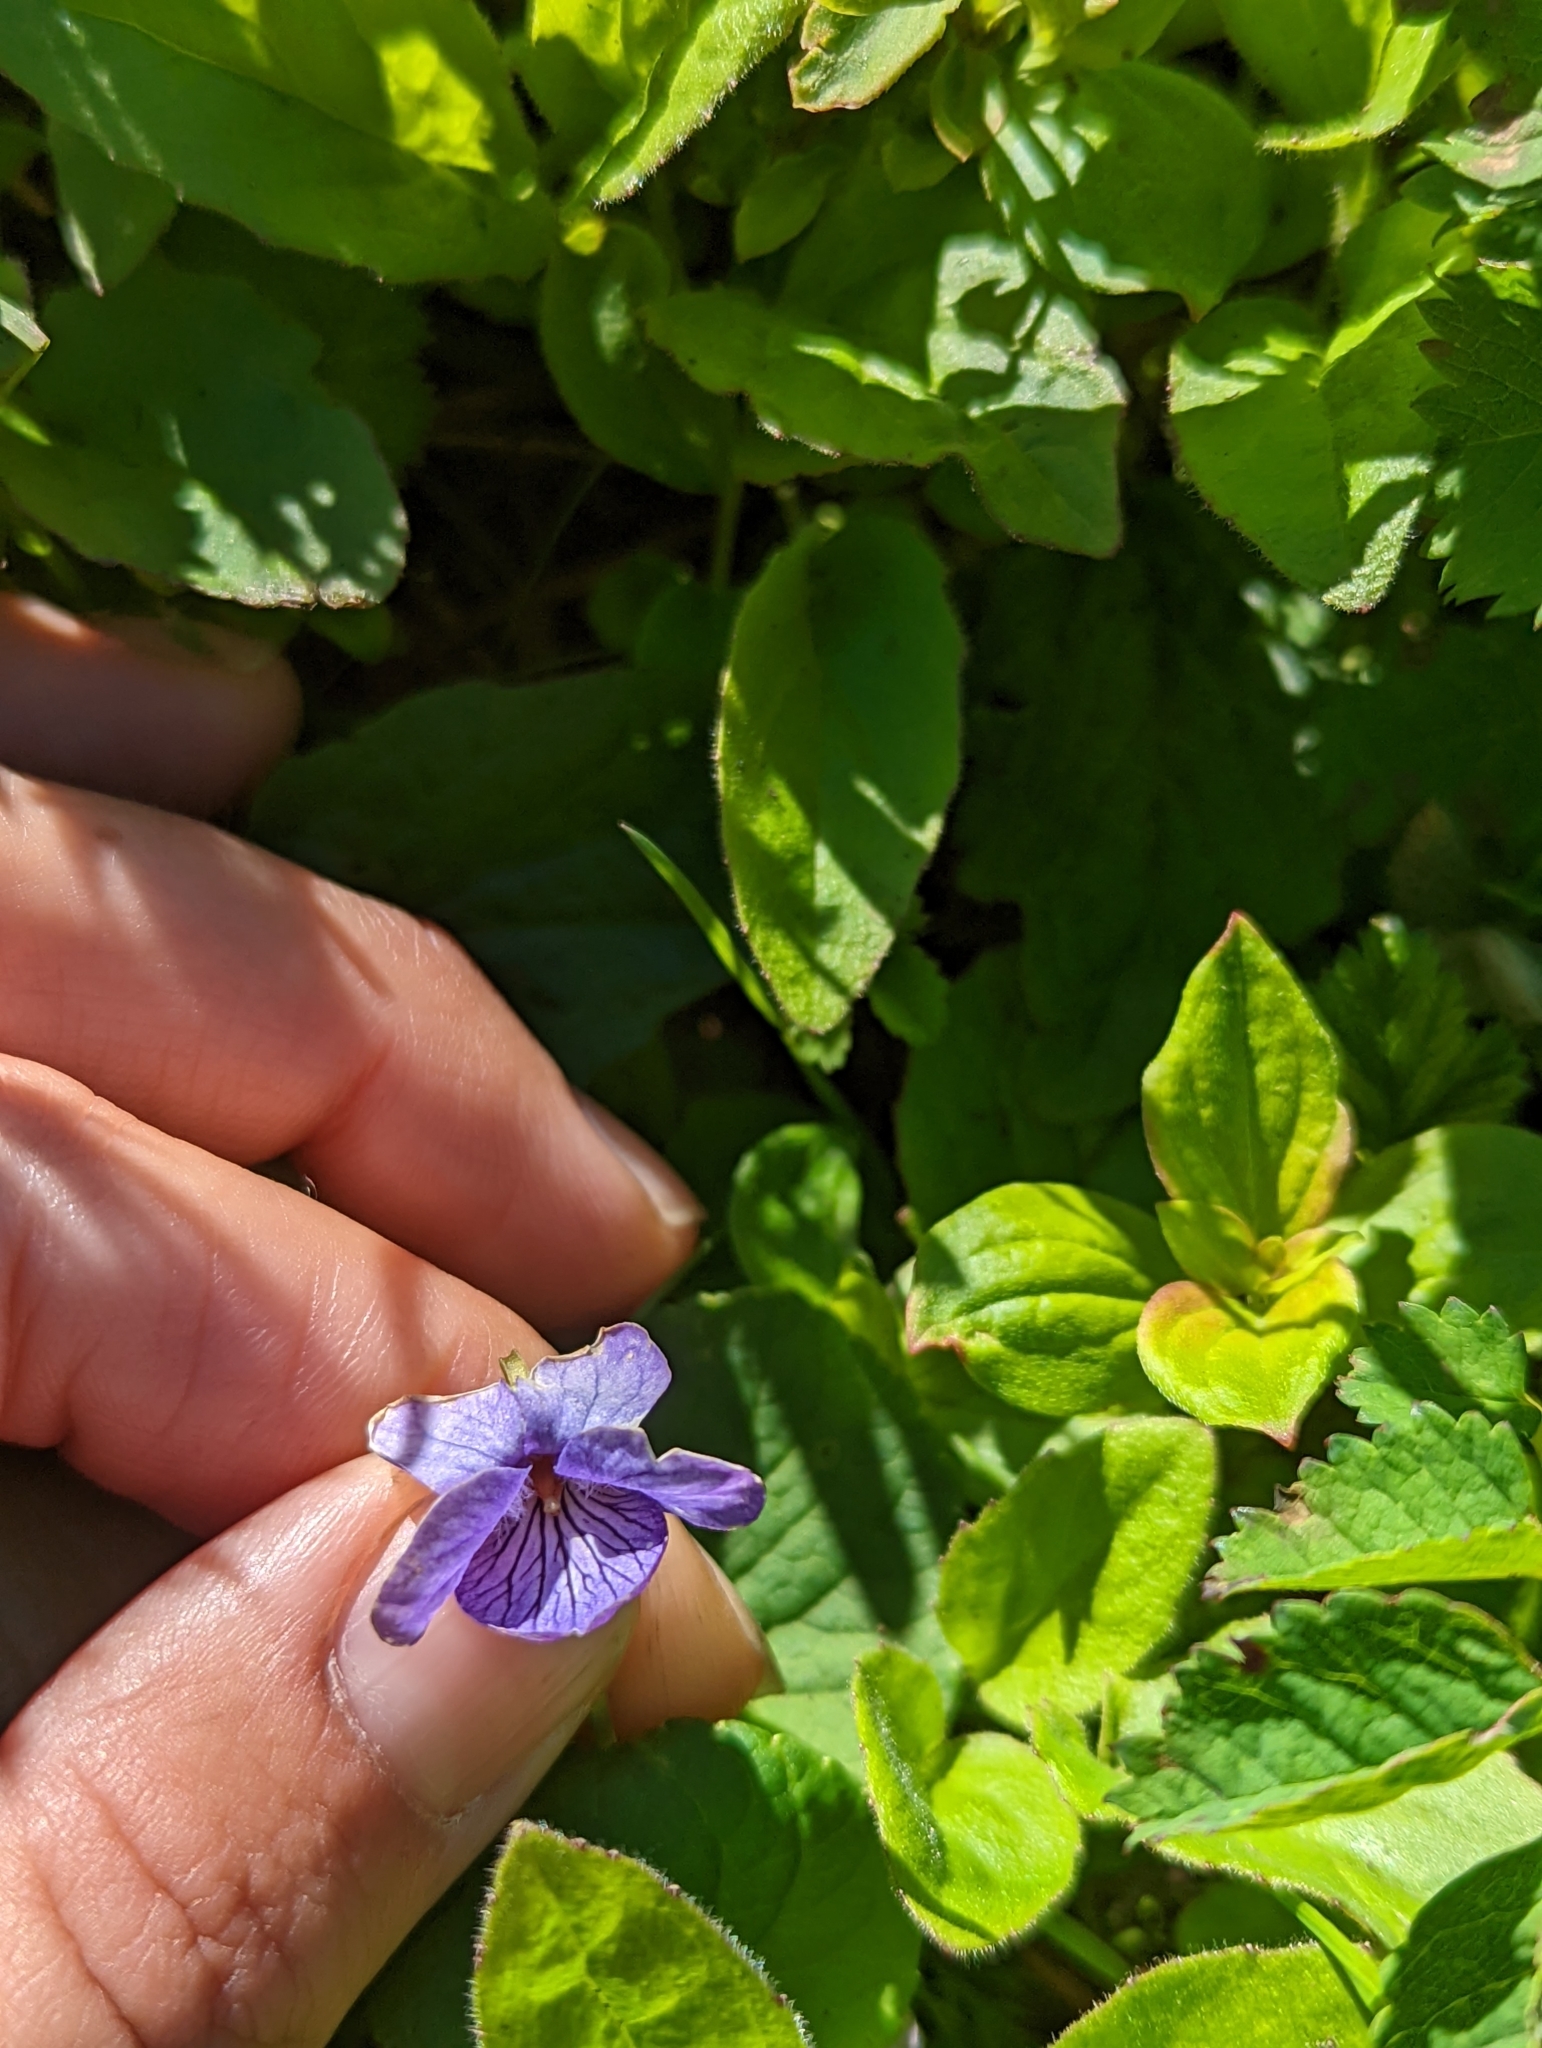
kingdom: Plantae
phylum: Tracheophyta
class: Magnoliopsida
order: Malpighiales
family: Violaceae
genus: Viola
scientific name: Viola langsdorffii
